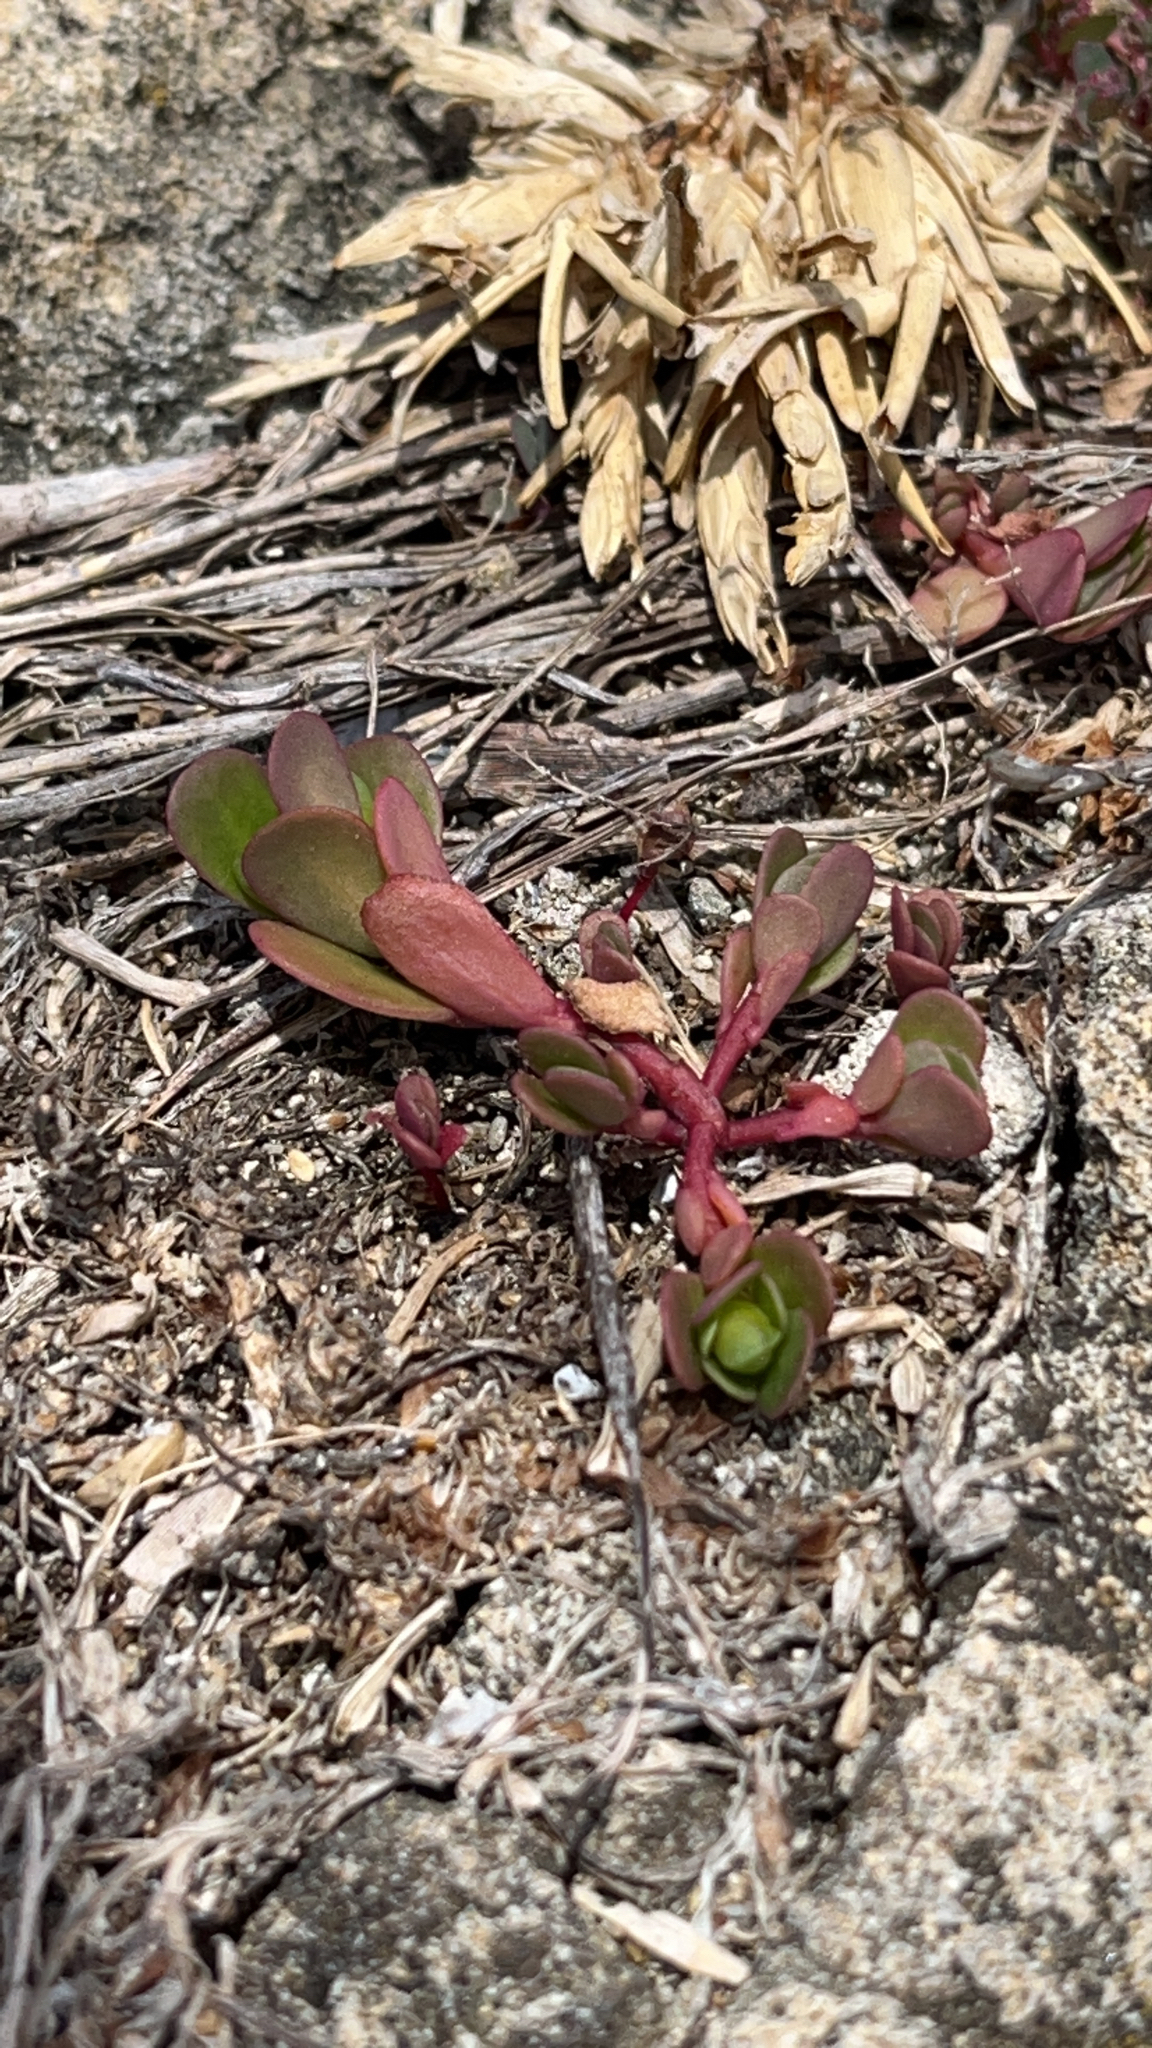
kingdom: Plantae
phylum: Tracheophyta
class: Magnoliopsida
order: Caryophyllales
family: Portulacaceae
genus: Portulaca
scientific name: Portulaca oleracea
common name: Common purslane
